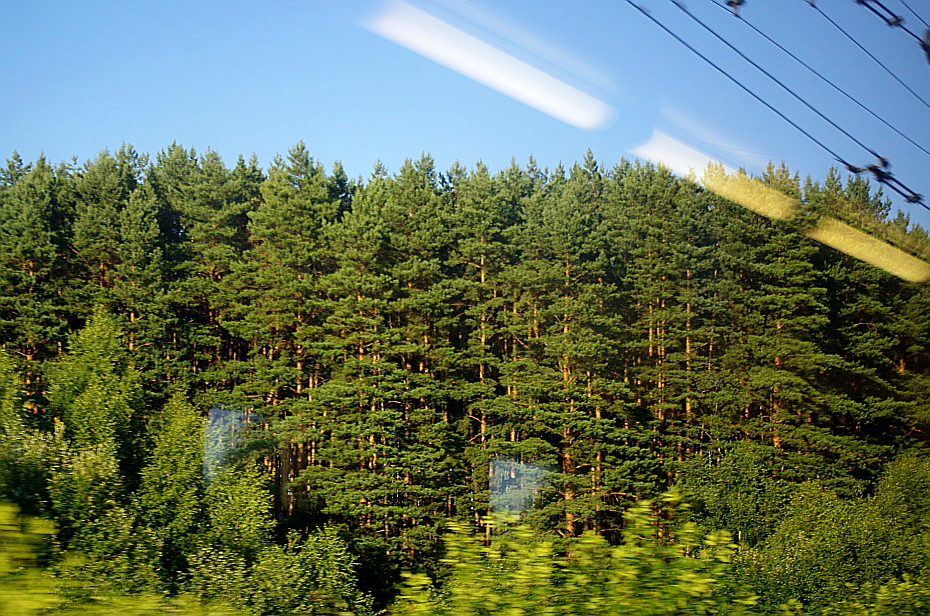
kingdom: Plantae
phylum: Tracheophyta
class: Pinopsida
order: Pinales
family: Pinaceae
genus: Pinus
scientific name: Pinus sylvestris
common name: Scots pine
